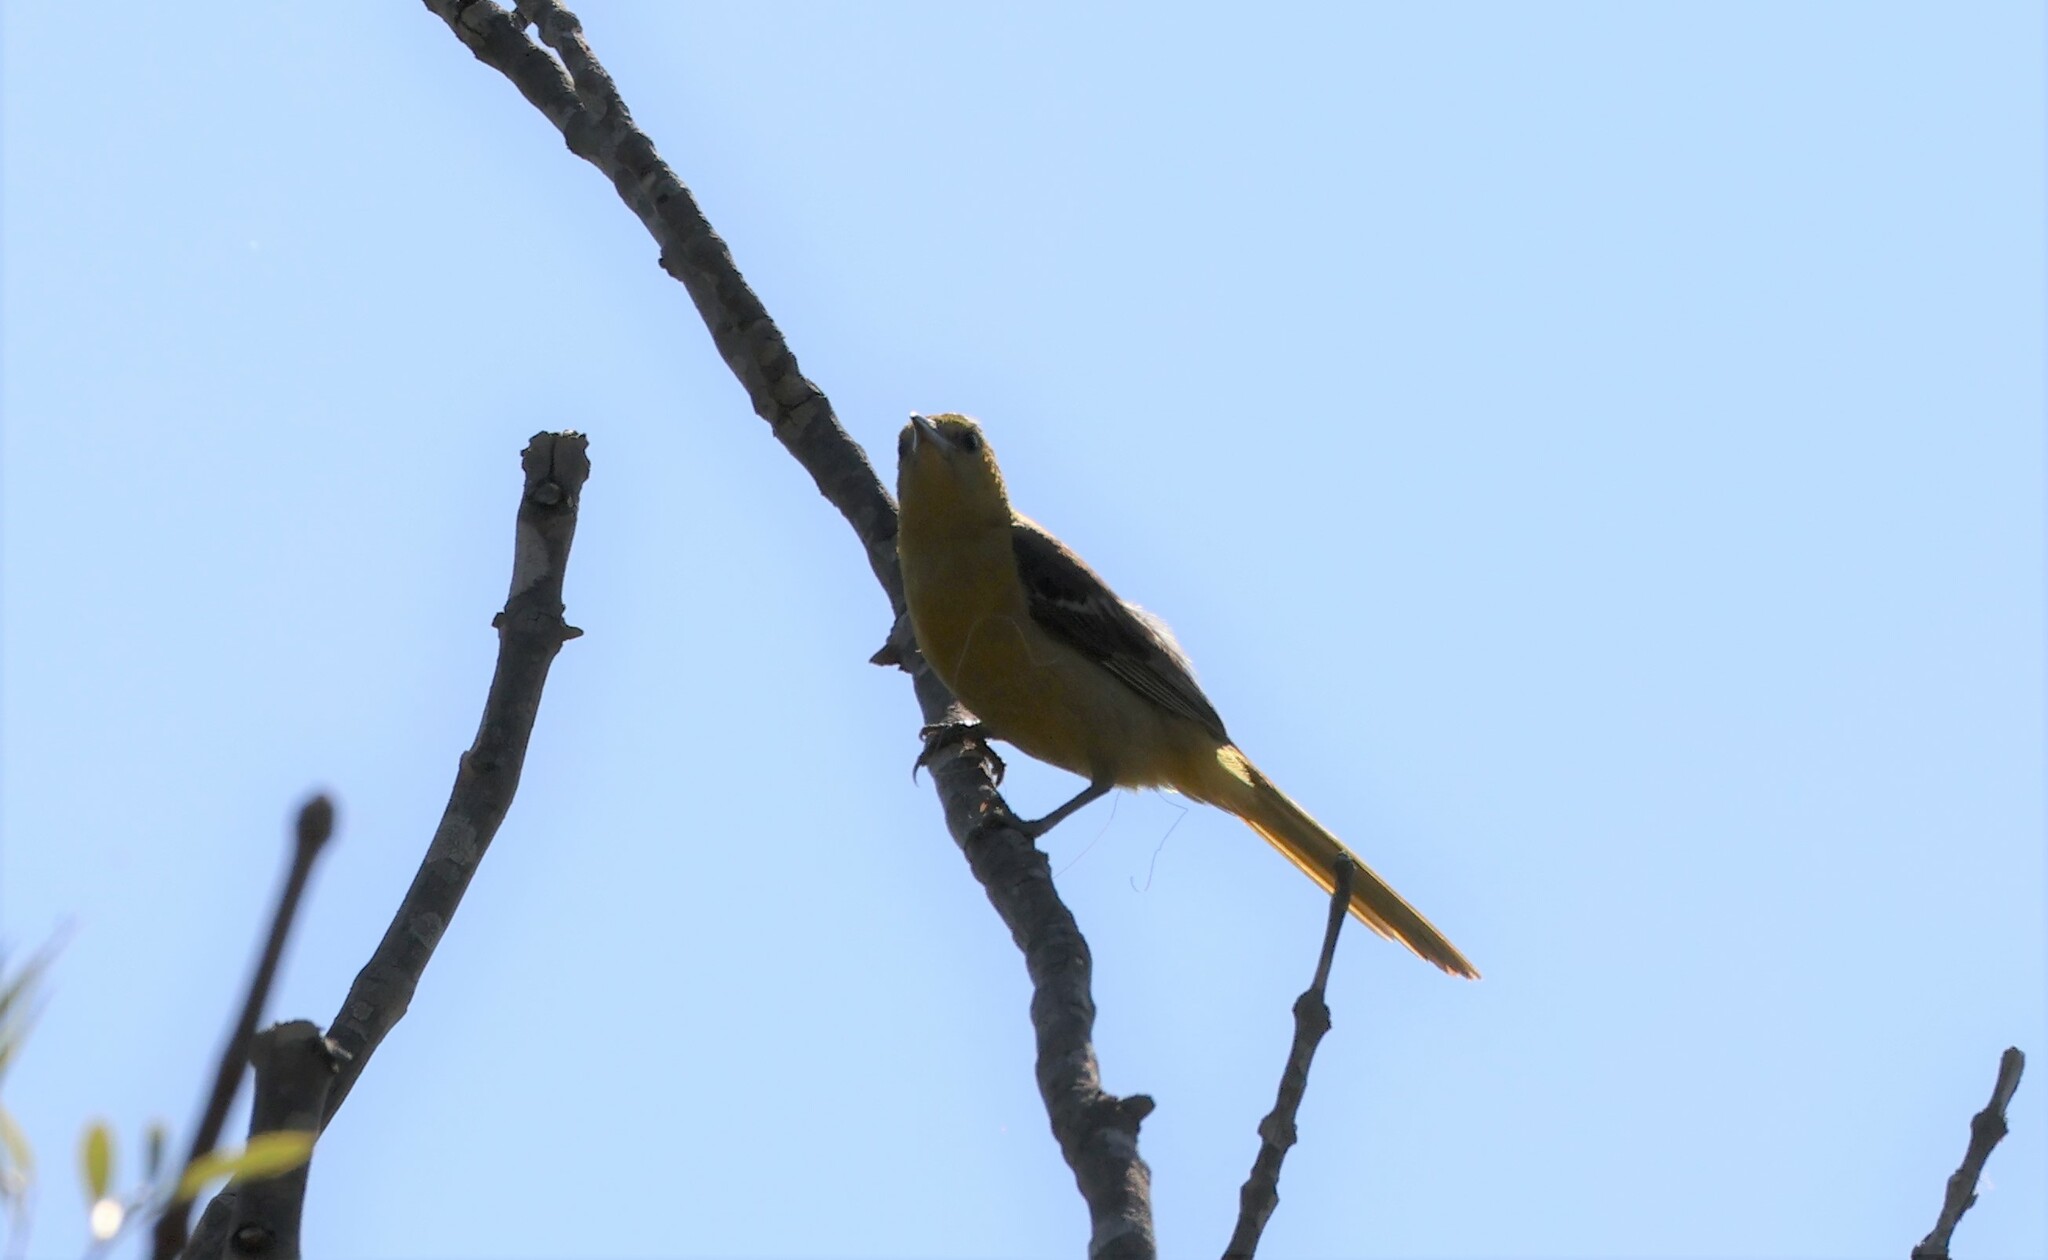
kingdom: Animalia
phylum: Chordata
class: Aves
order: Passeriformes
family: Icteridae
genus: Icterus
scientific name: Icterus cucullatus
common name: Hooded oriole
